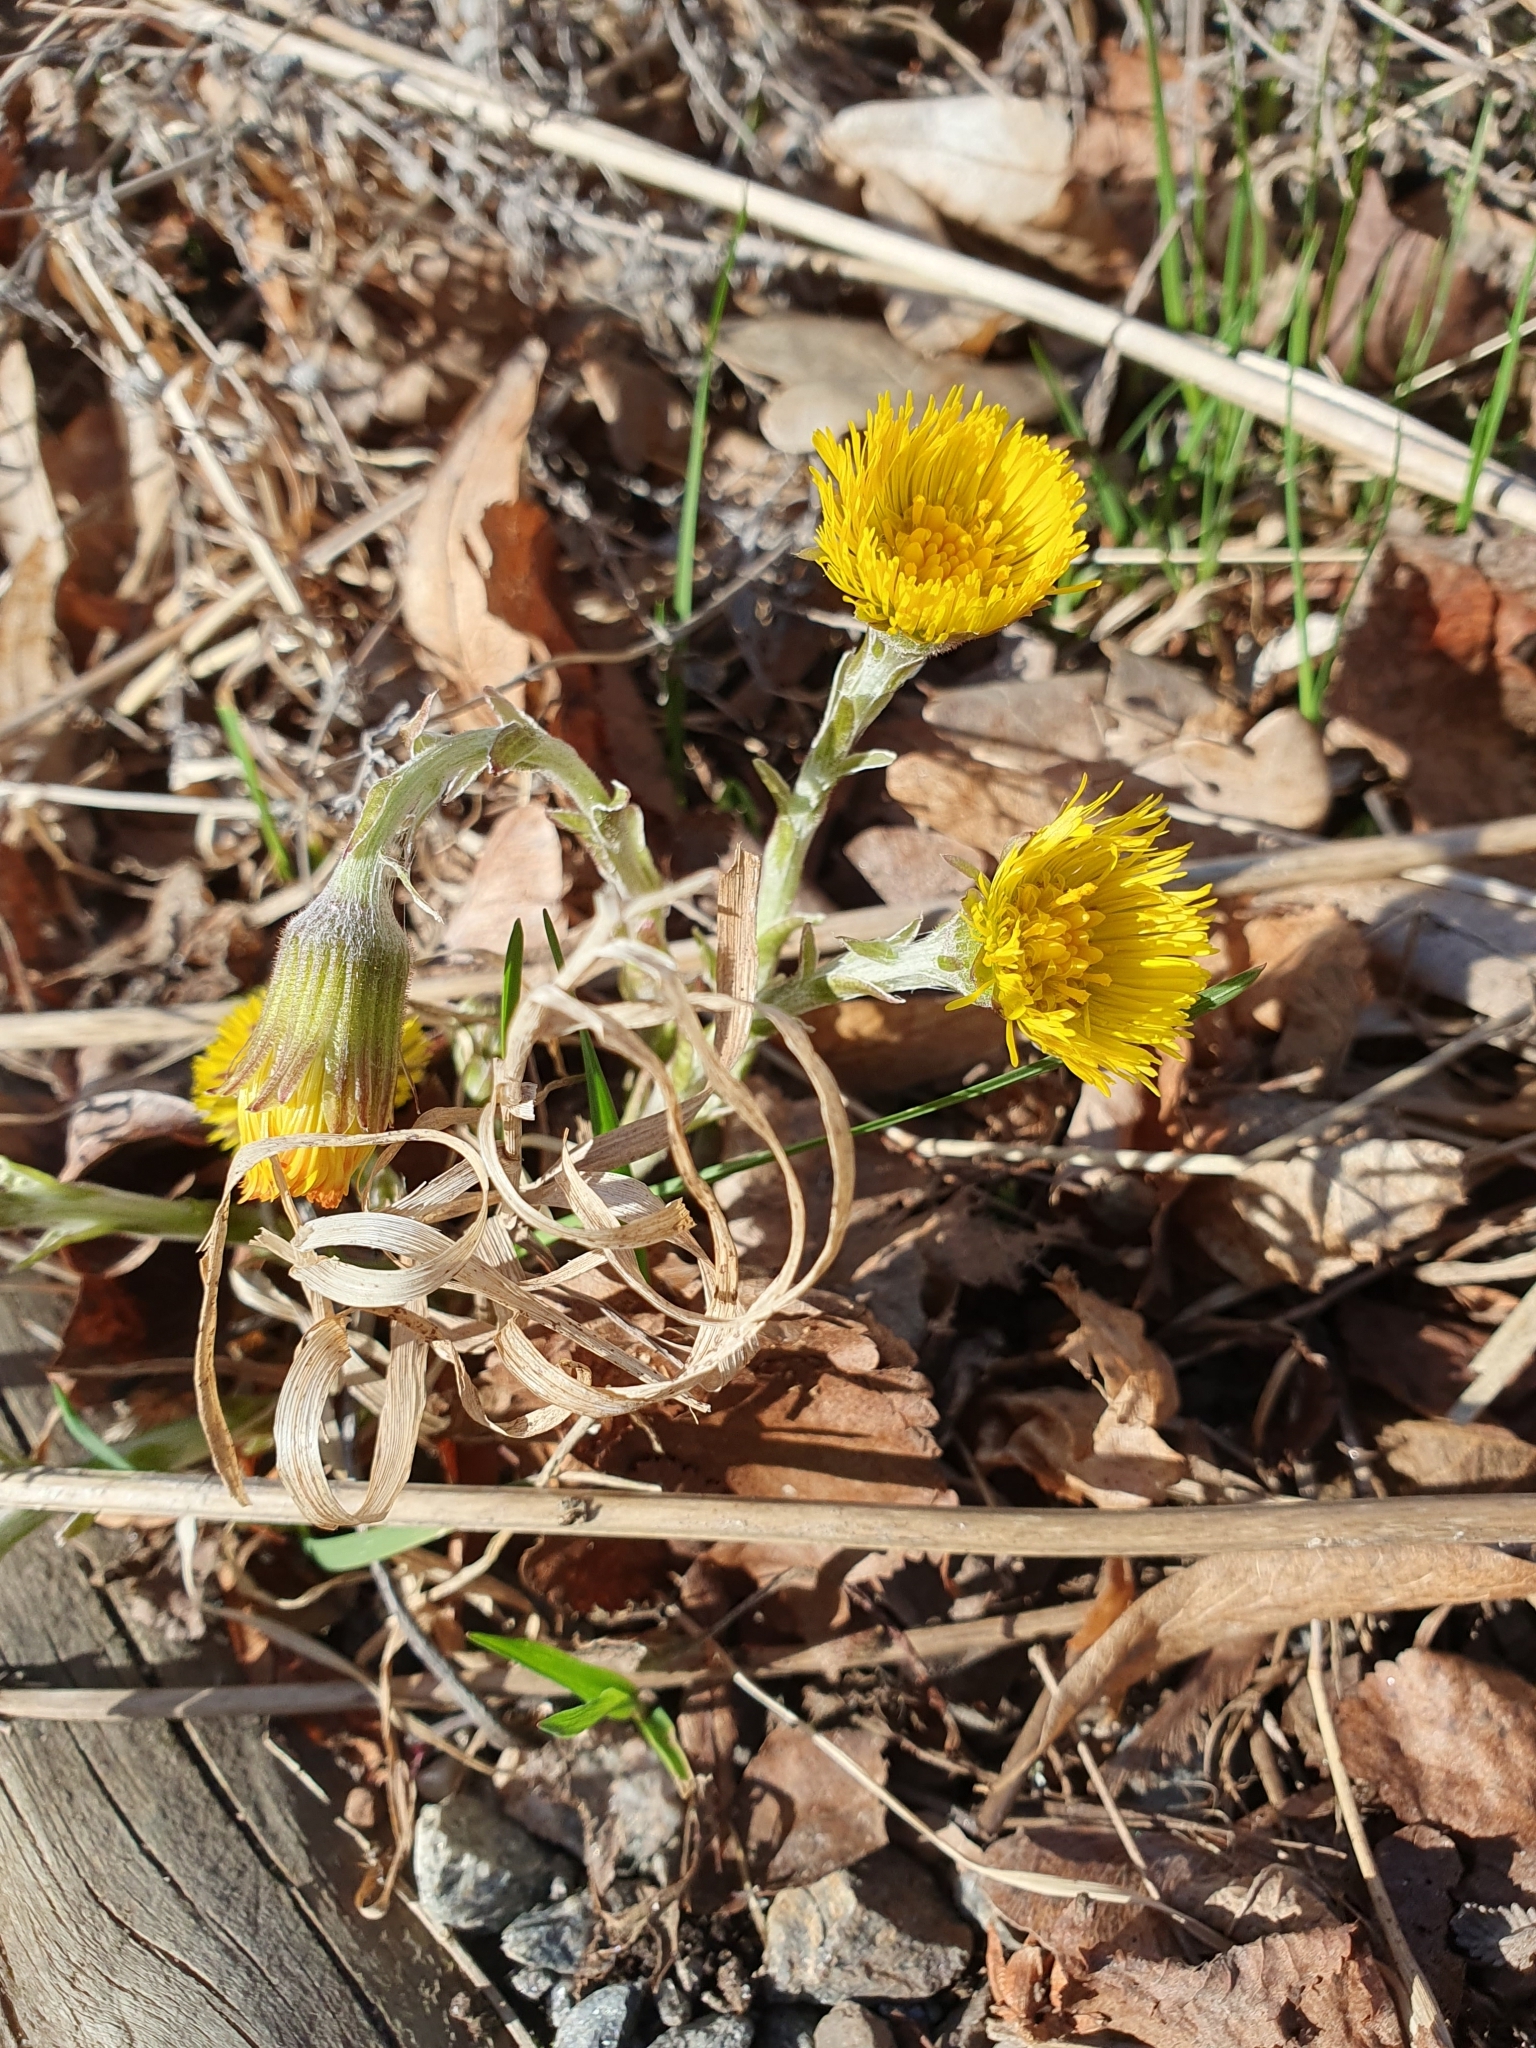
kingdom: Plantae
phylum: Tracheophyta
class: Magnoliopsida
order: Asterales
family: Asteraceae
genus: Tussilago
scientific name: Tussilago farfara
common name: Coltsfoot
